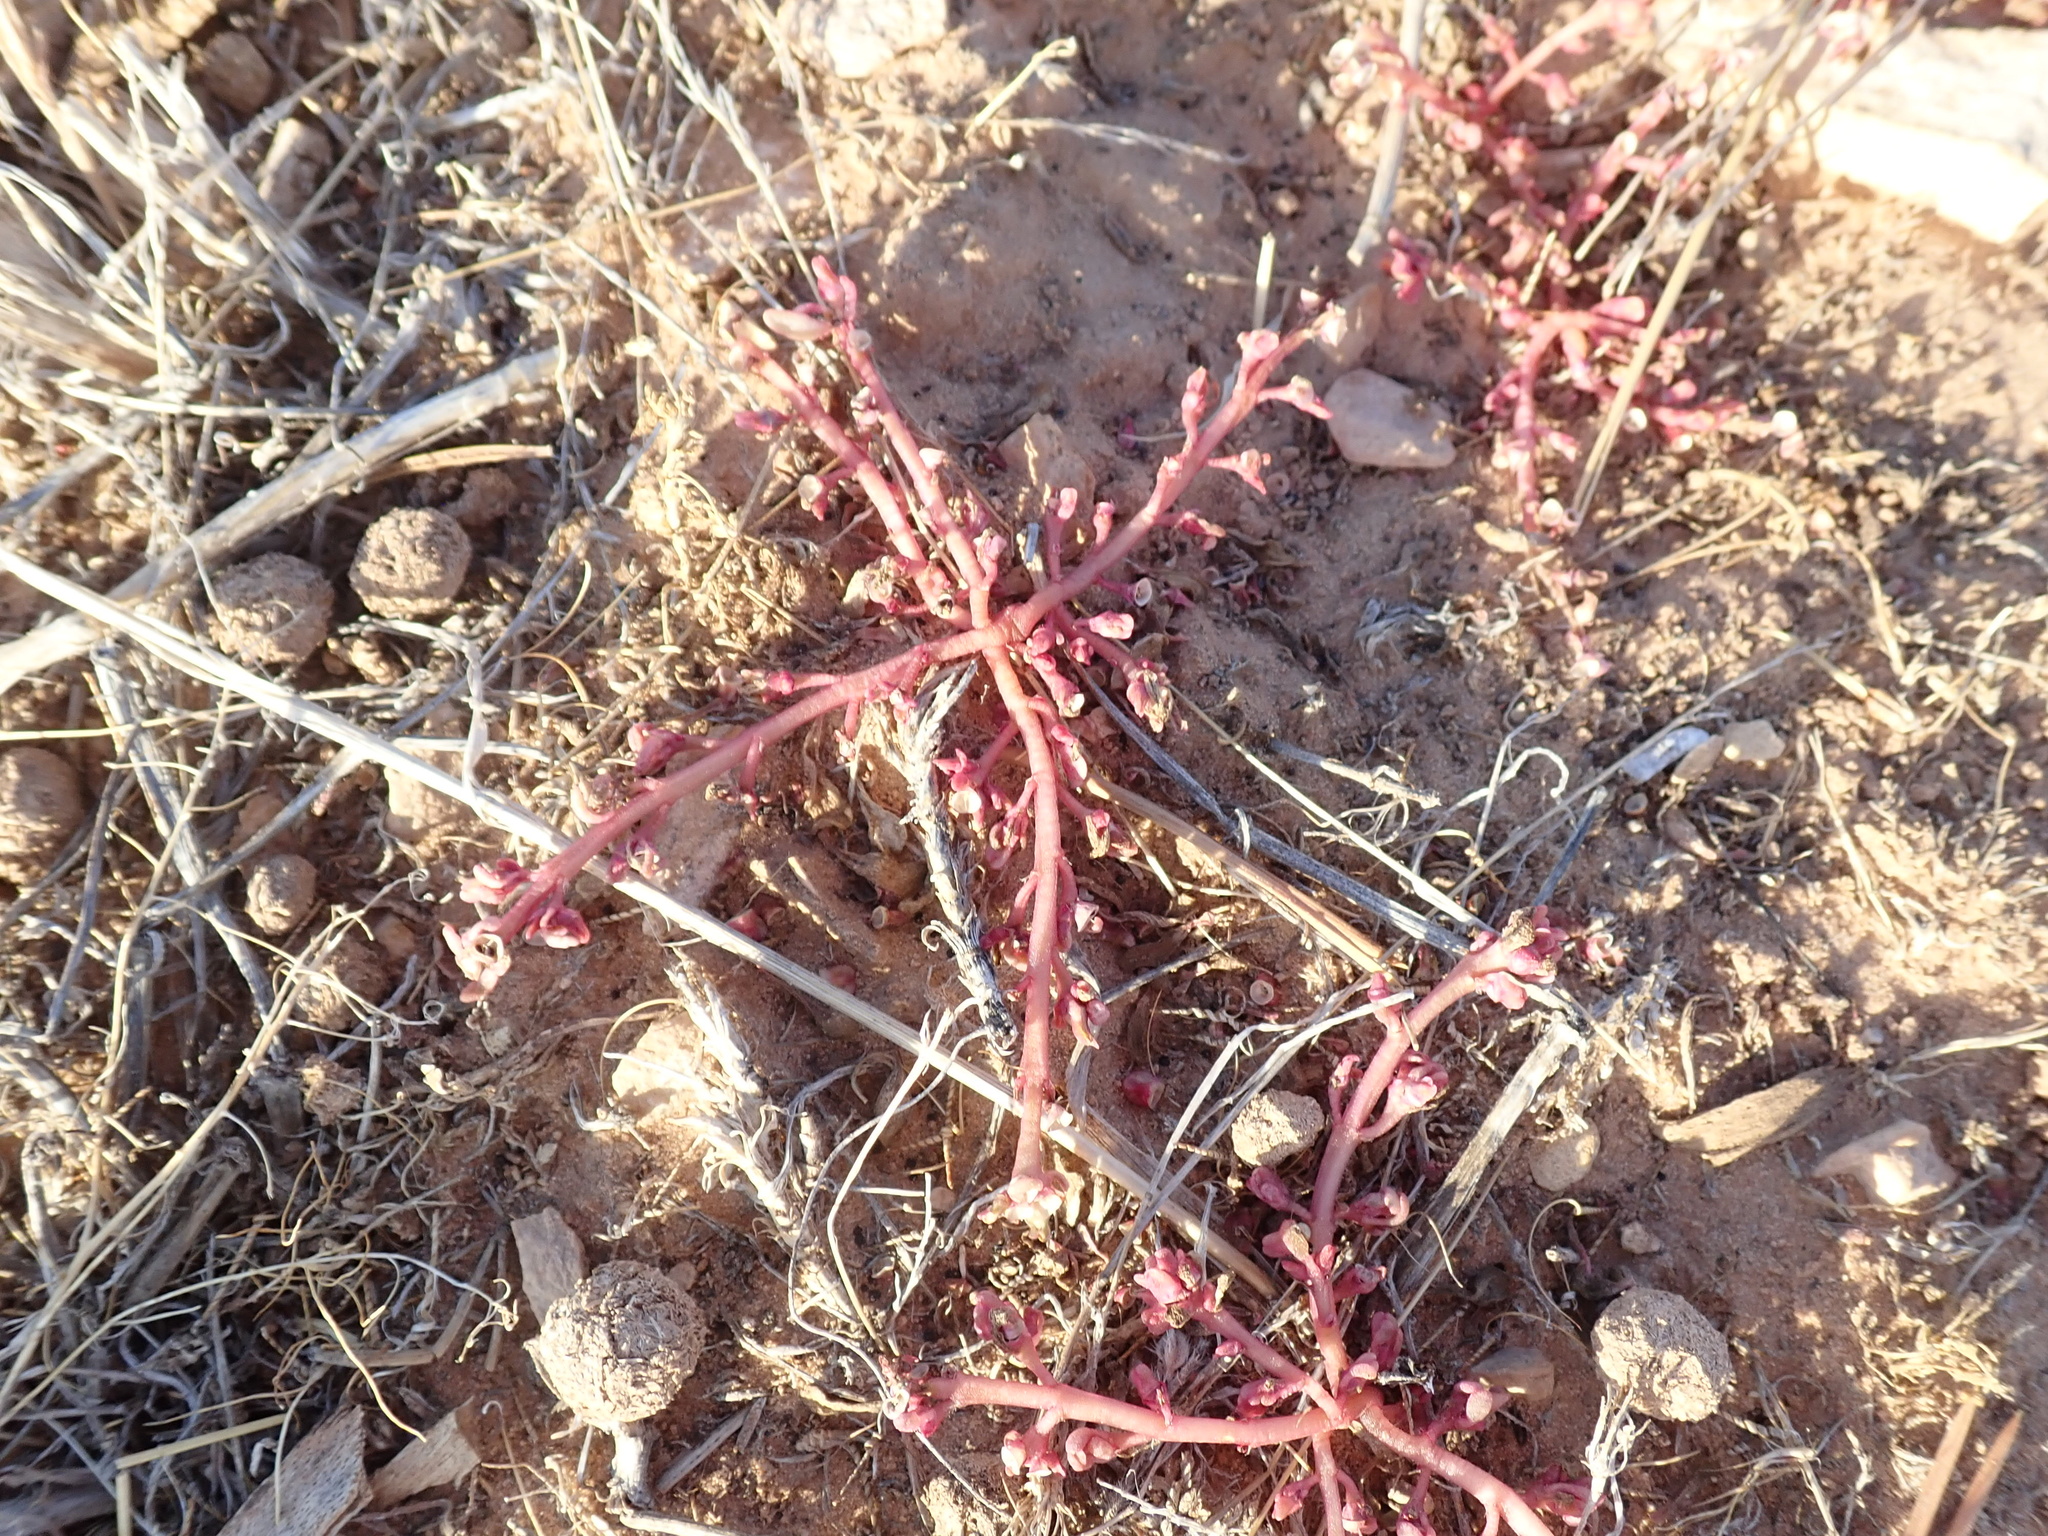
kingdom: Plantae
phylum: Tracheophyta
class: Magnoliopsida
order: Caryophyllales
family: Portulacaceae
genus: Portulaca
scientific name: Portulaca oleracea
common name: Common purslane
